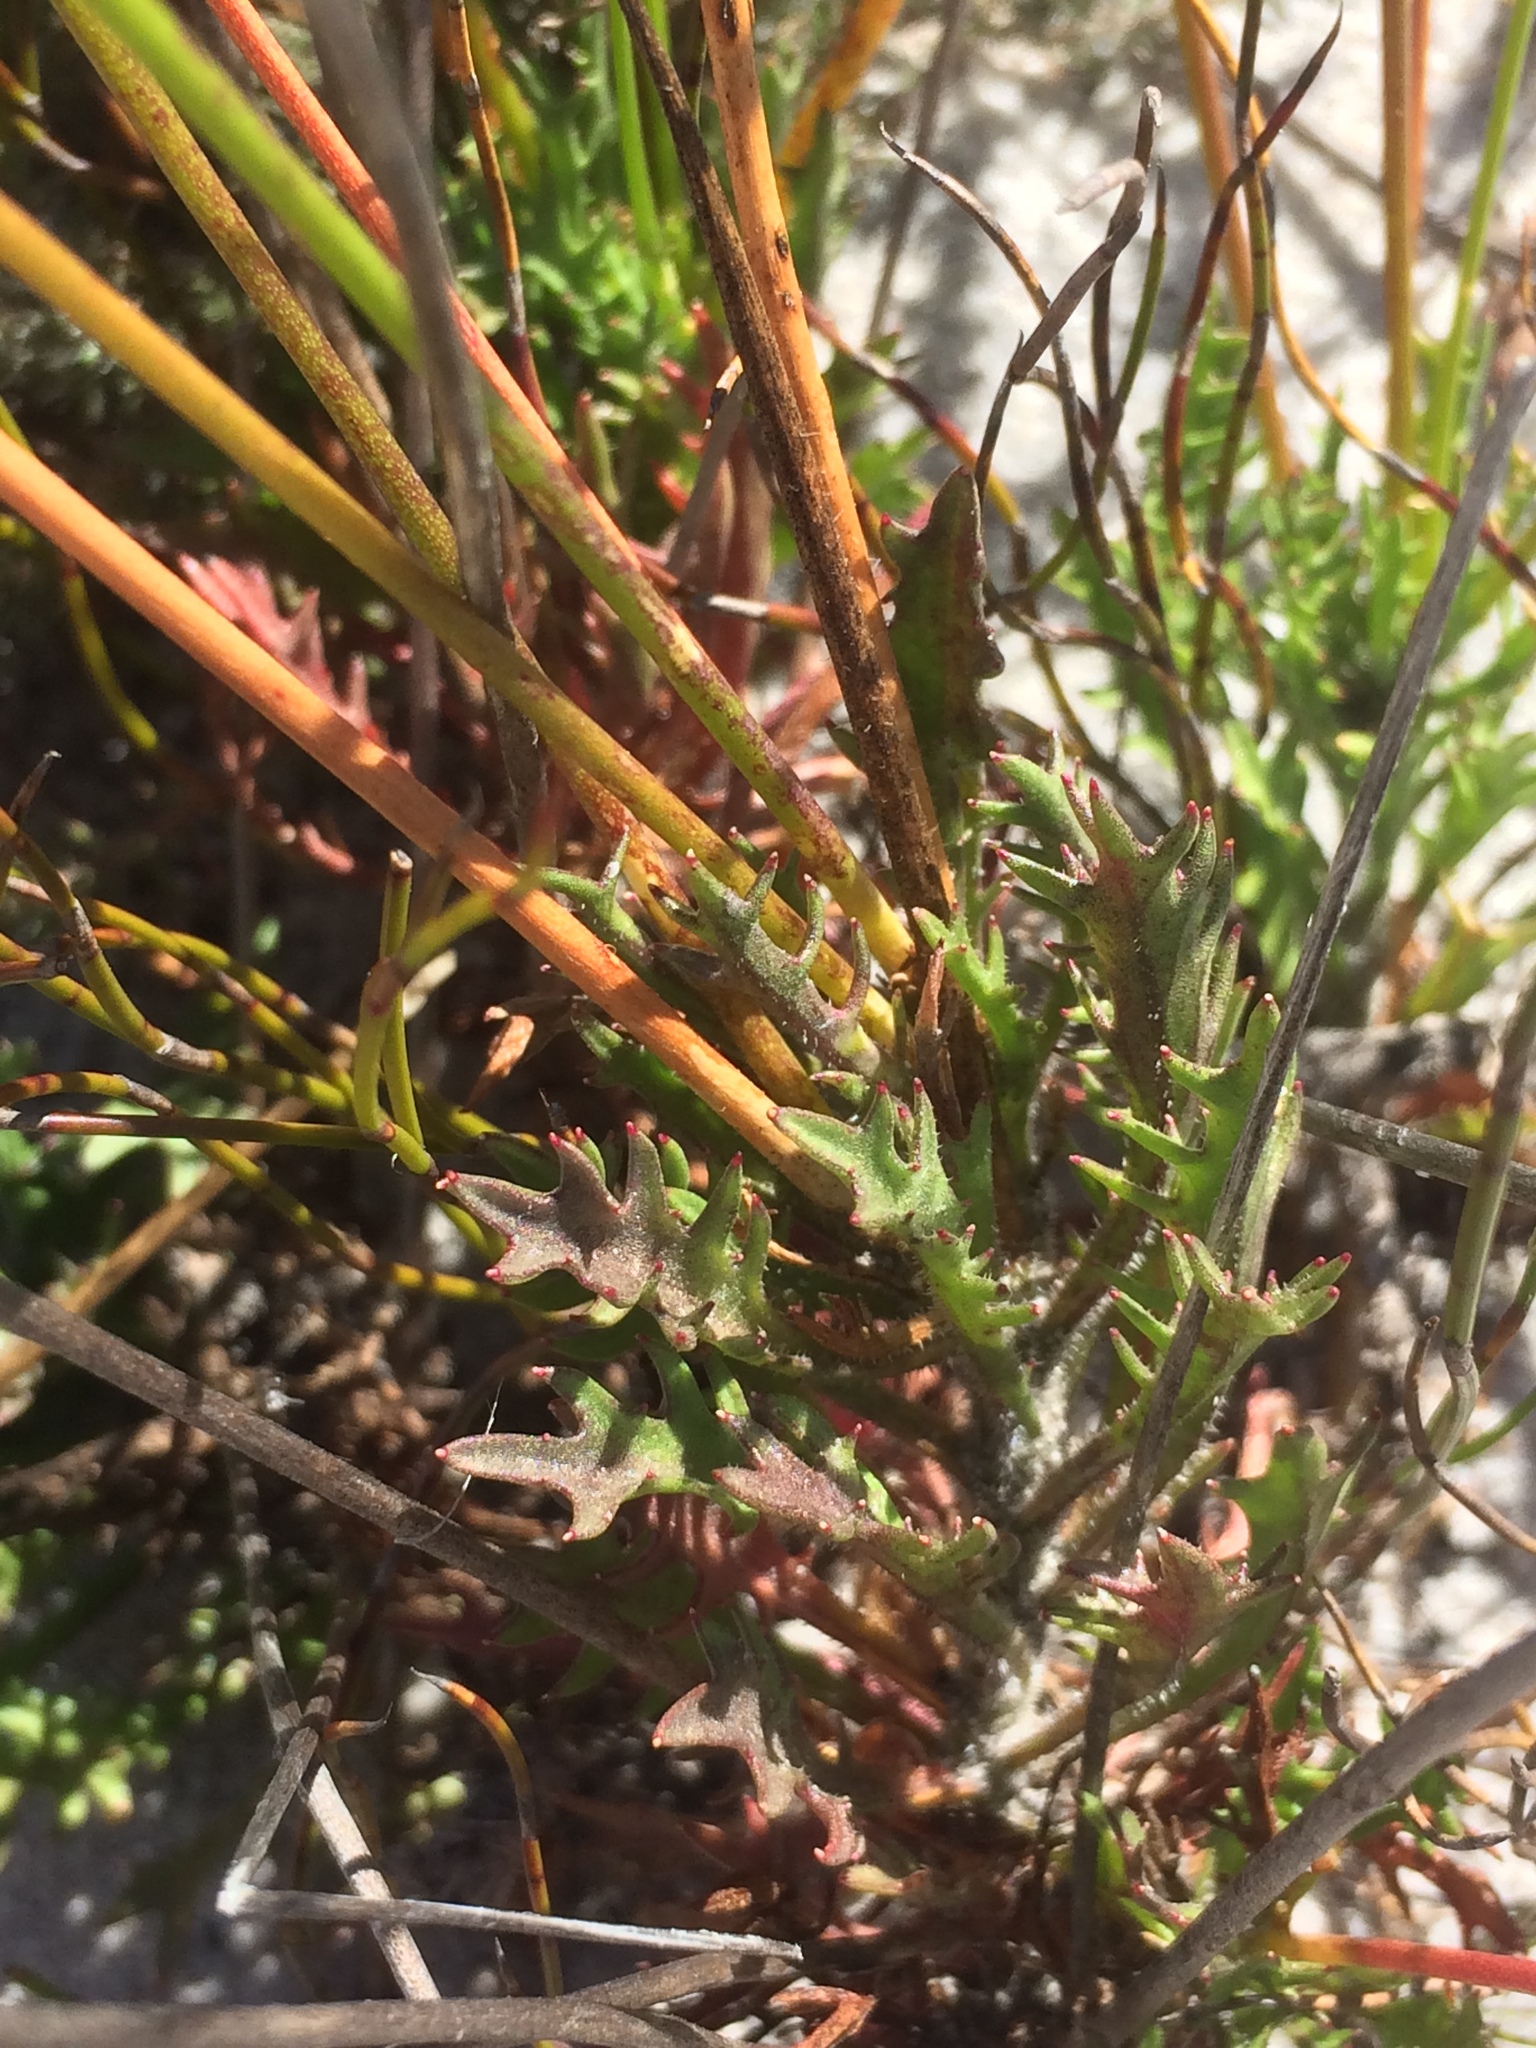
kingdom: Plantae
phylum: Tracheophyta
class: Magnoliopsida
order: Asterales
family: Campanulaceae
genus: Lobelia
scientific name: Lobelia coronopifolia
